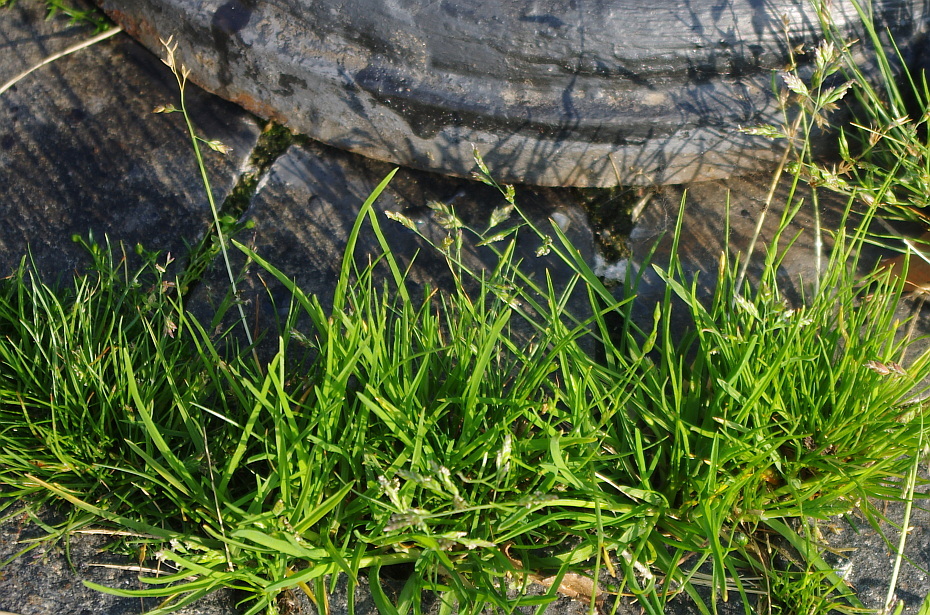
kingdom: Plantae
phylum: Tracheophyta
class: Liliopsida
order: Poales
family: Poaceae
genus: Poa
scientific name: Poa annua
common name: Annual bluegrass
